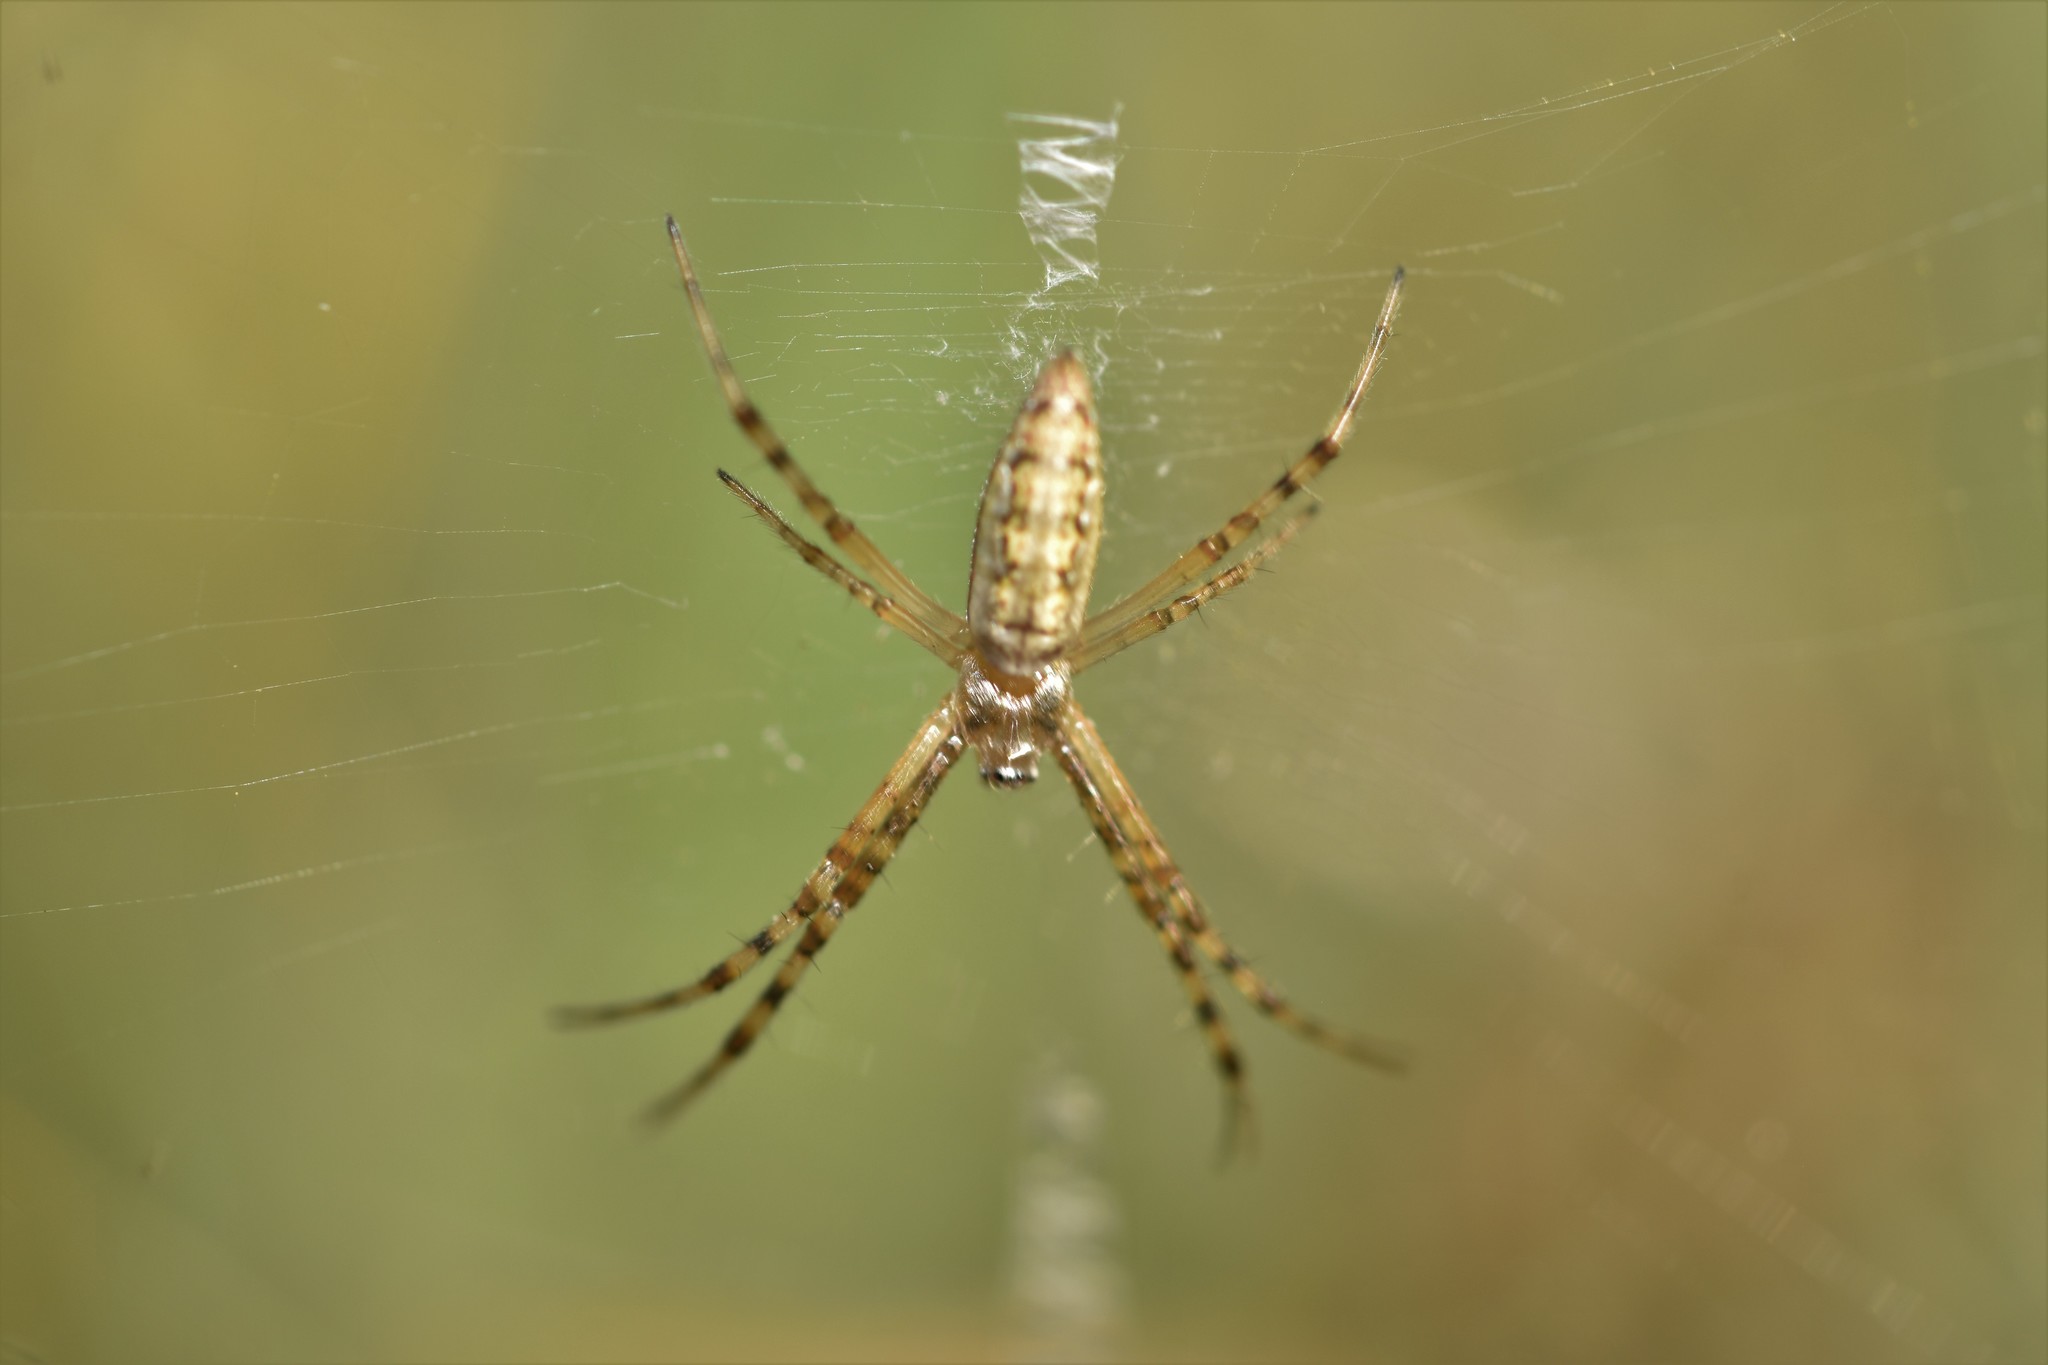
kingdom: Animalia
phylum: Arthropoda
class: Arachnida
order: Araneae
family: Araneidae
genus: Argiope
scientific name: Argiope aurantia
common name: Orb weavers
